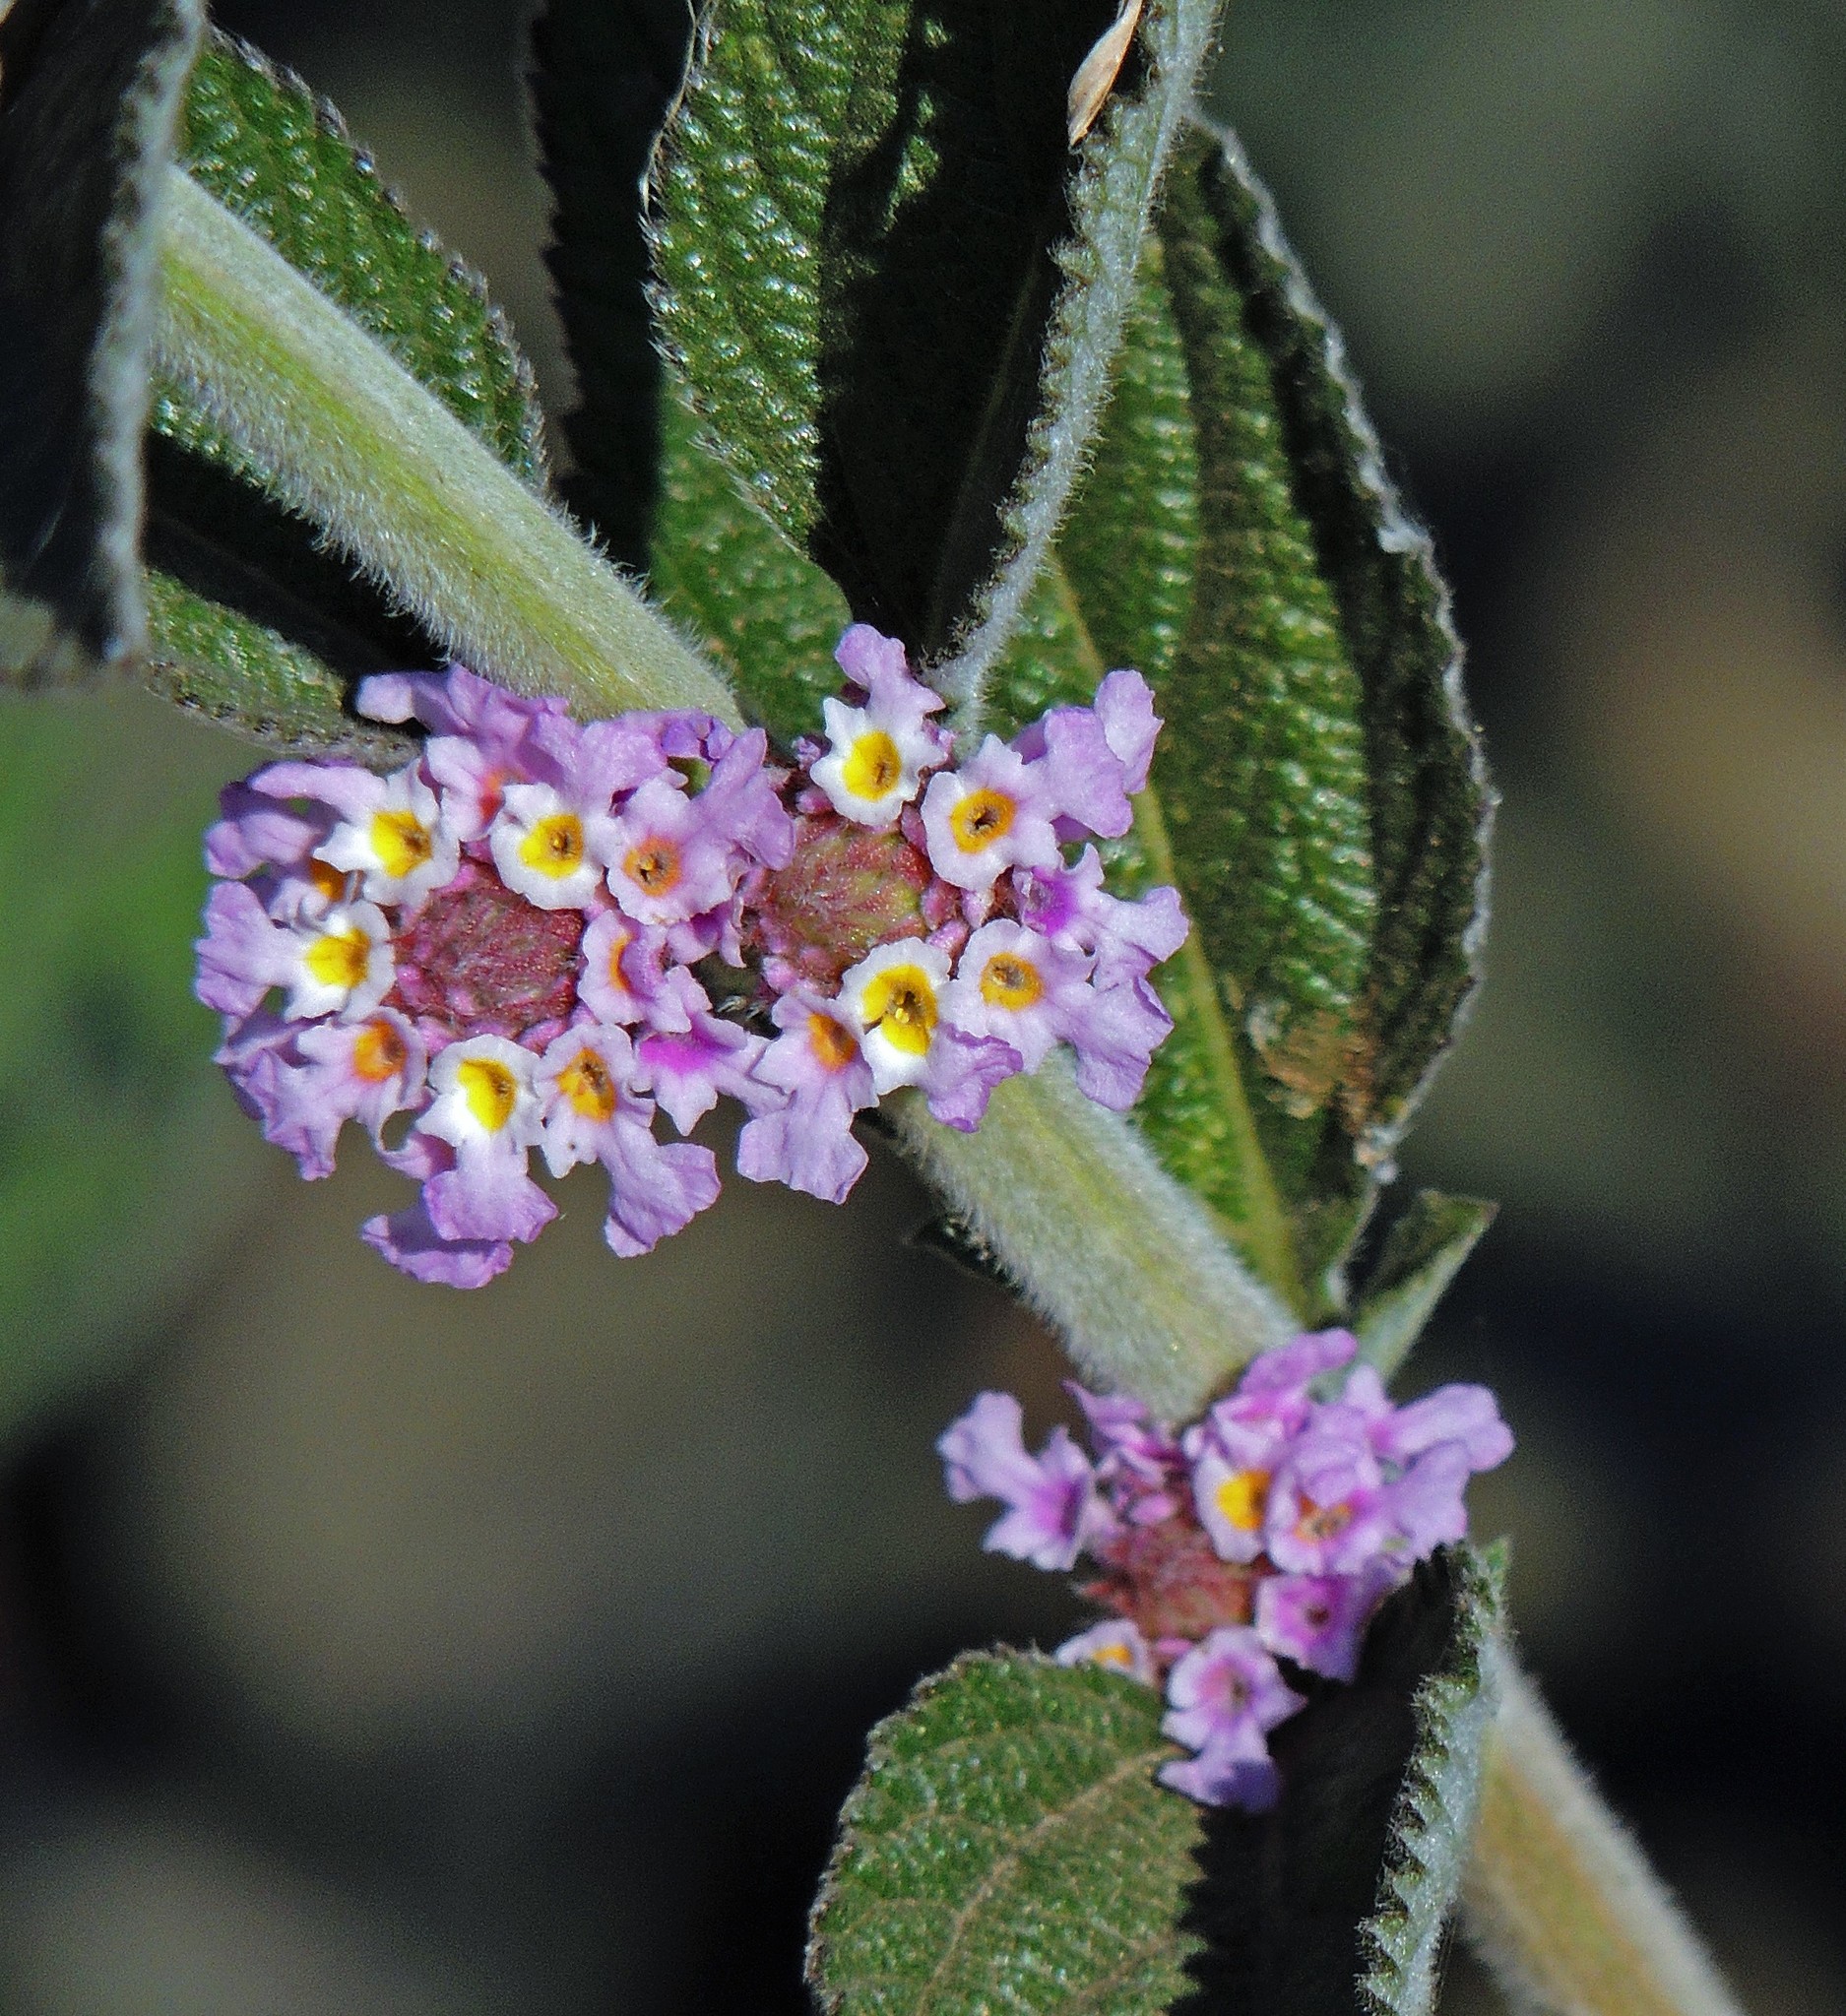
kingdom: Plantae
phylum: Tracheophyta
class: Magnoliopsida
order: Lamiales
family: Verbenaceae
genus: Lippia
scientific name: Lippia alba
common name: Bushy matgrass
